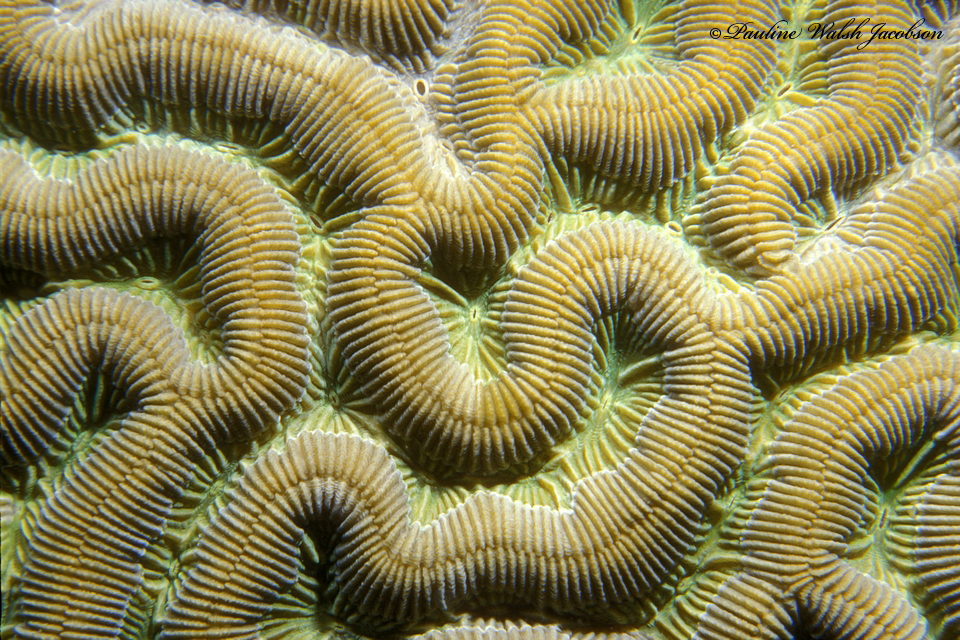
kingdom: Animalia
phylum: Cnidaria
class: Anthozoa
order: Scleractinia
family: Faviidae
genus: Colpophyllia
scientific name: Colpophyllia natans
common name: Boulder brain coral
